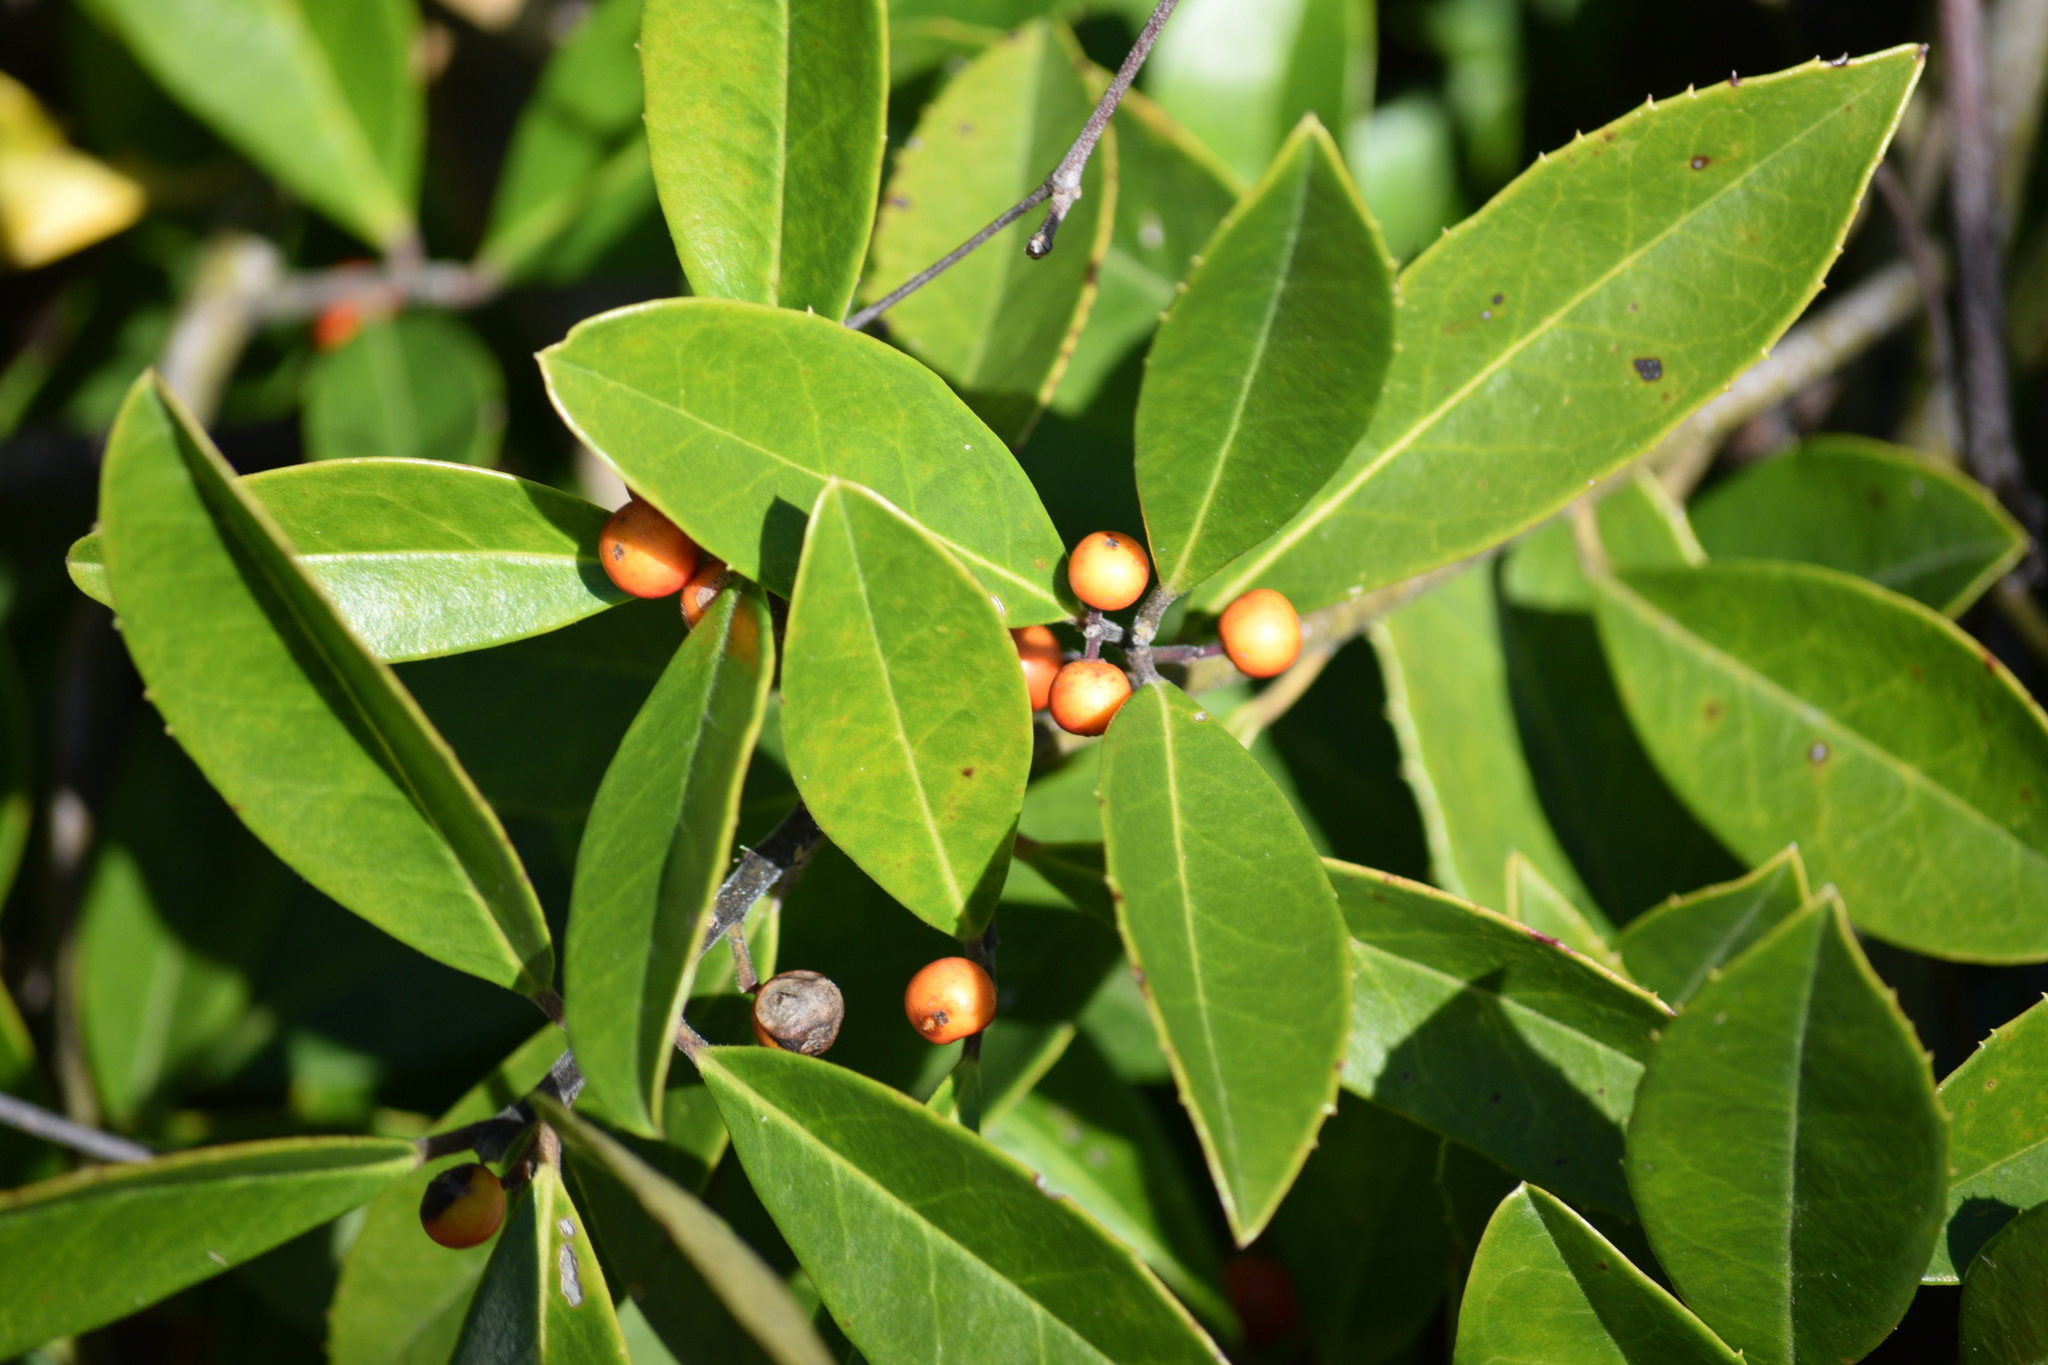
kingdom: Plantae
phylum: Tracheophyta
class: Magnoliopsida
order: Aquifoliales
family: Aquifoliaceae
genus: Ilex
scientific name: Ilex cassine
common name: Dahoon
